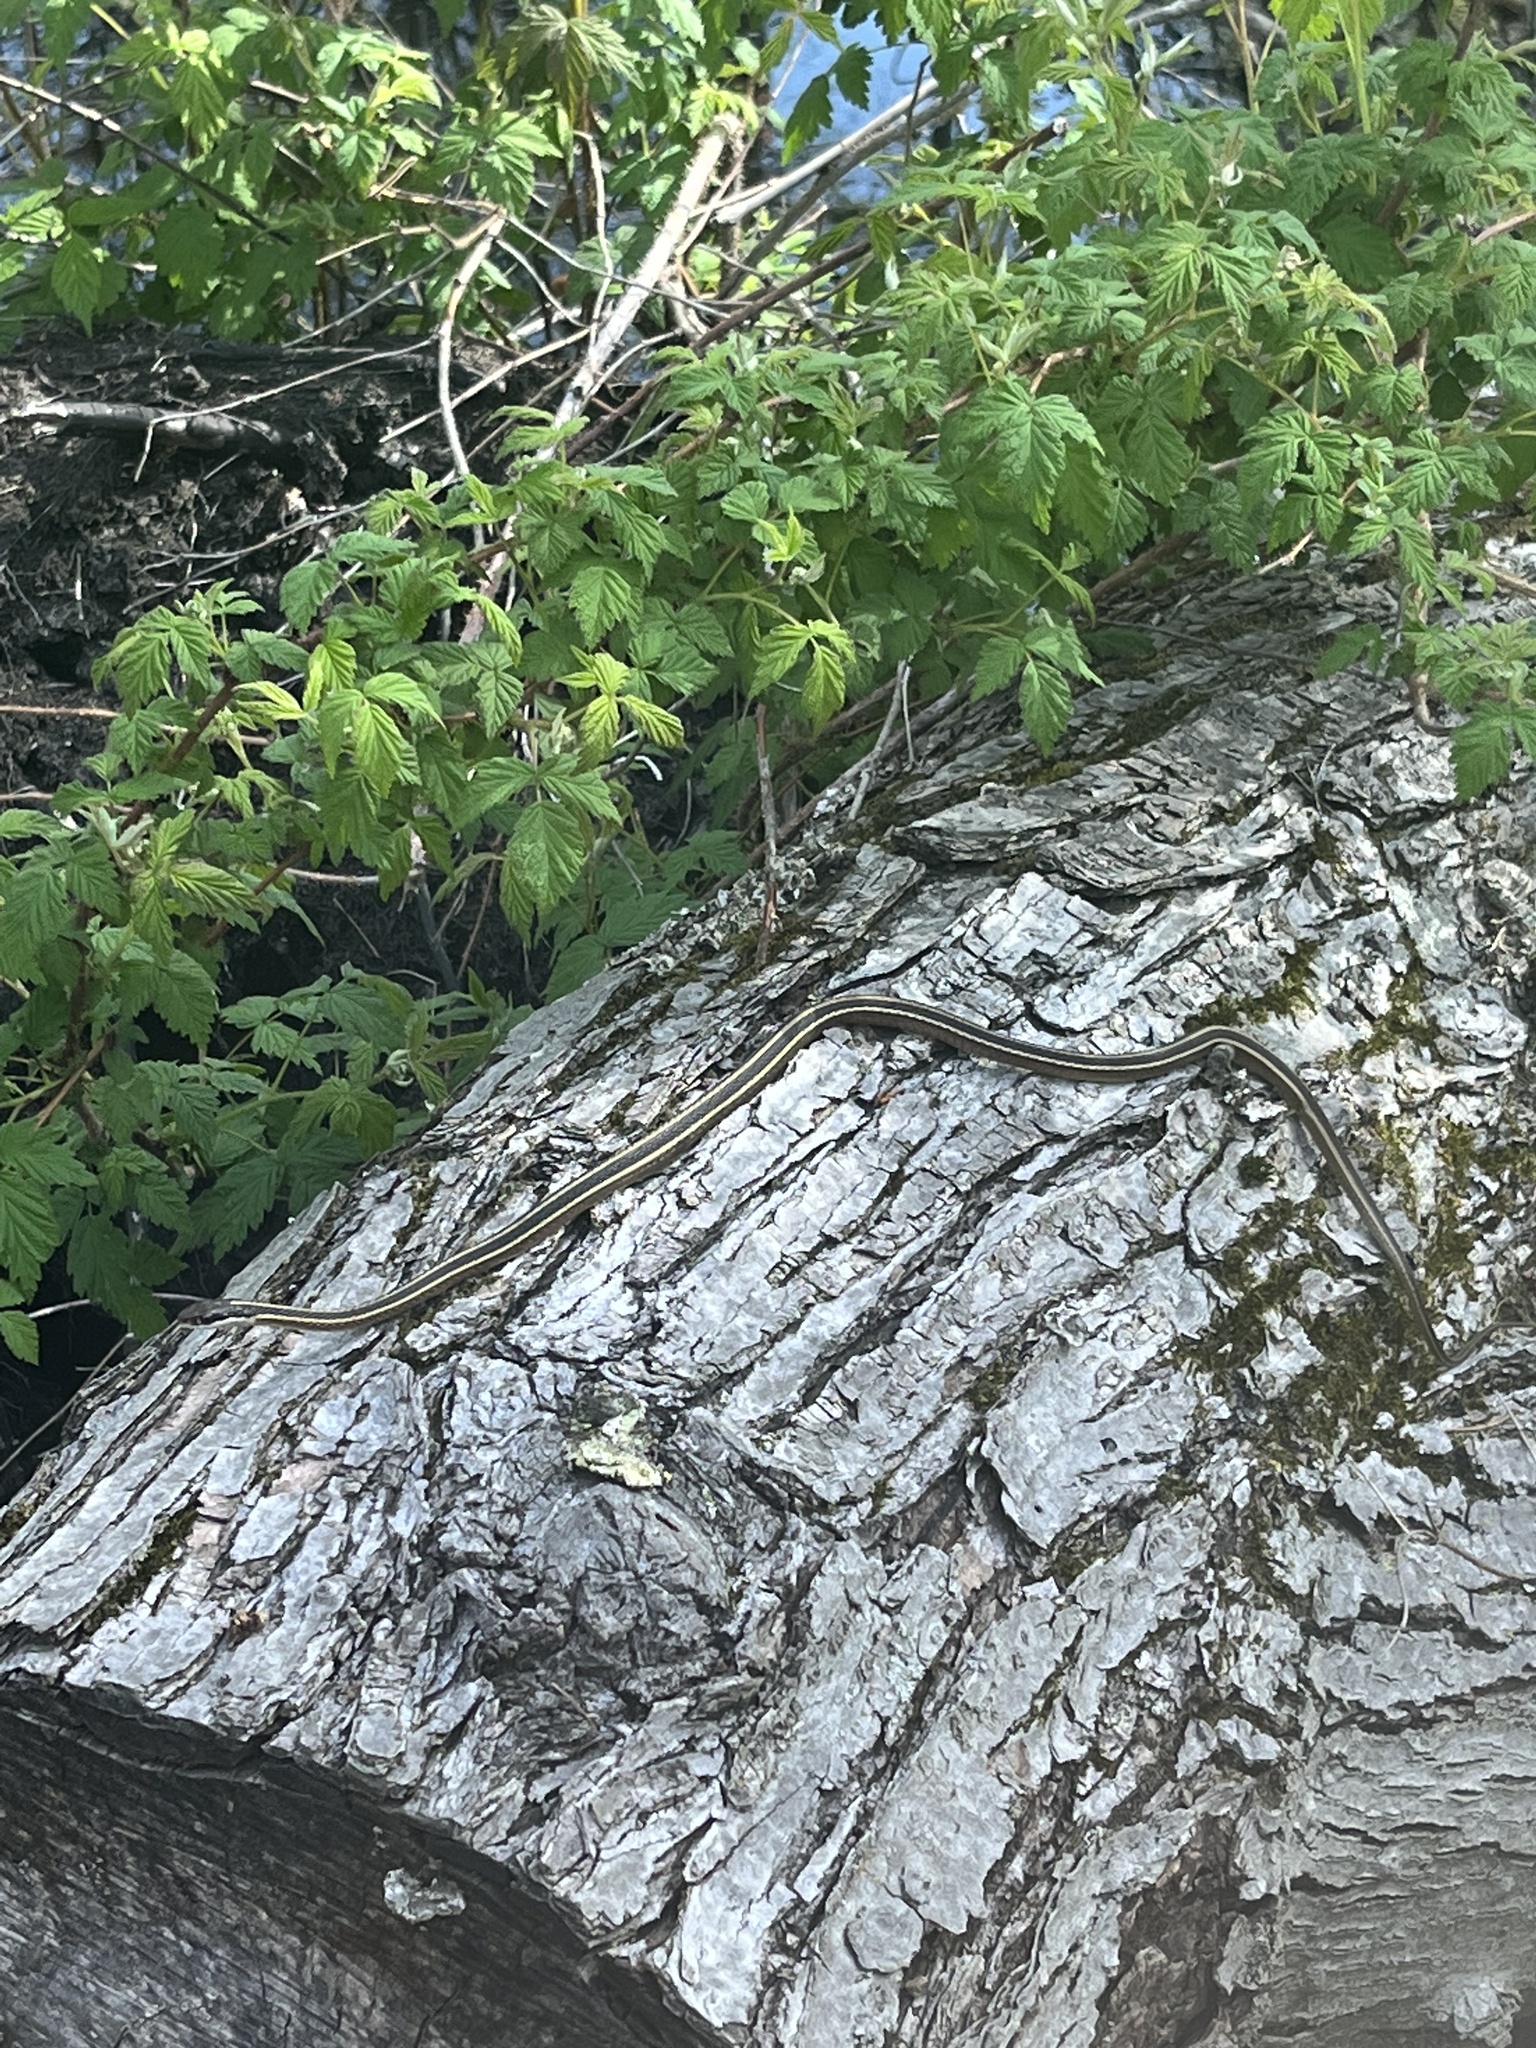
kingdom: Animalia
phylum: Chordata
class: Squamata
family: Colubridae
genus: Thamnophis
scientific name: Thamnophis saurita
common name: Eastern ribbonsnake
